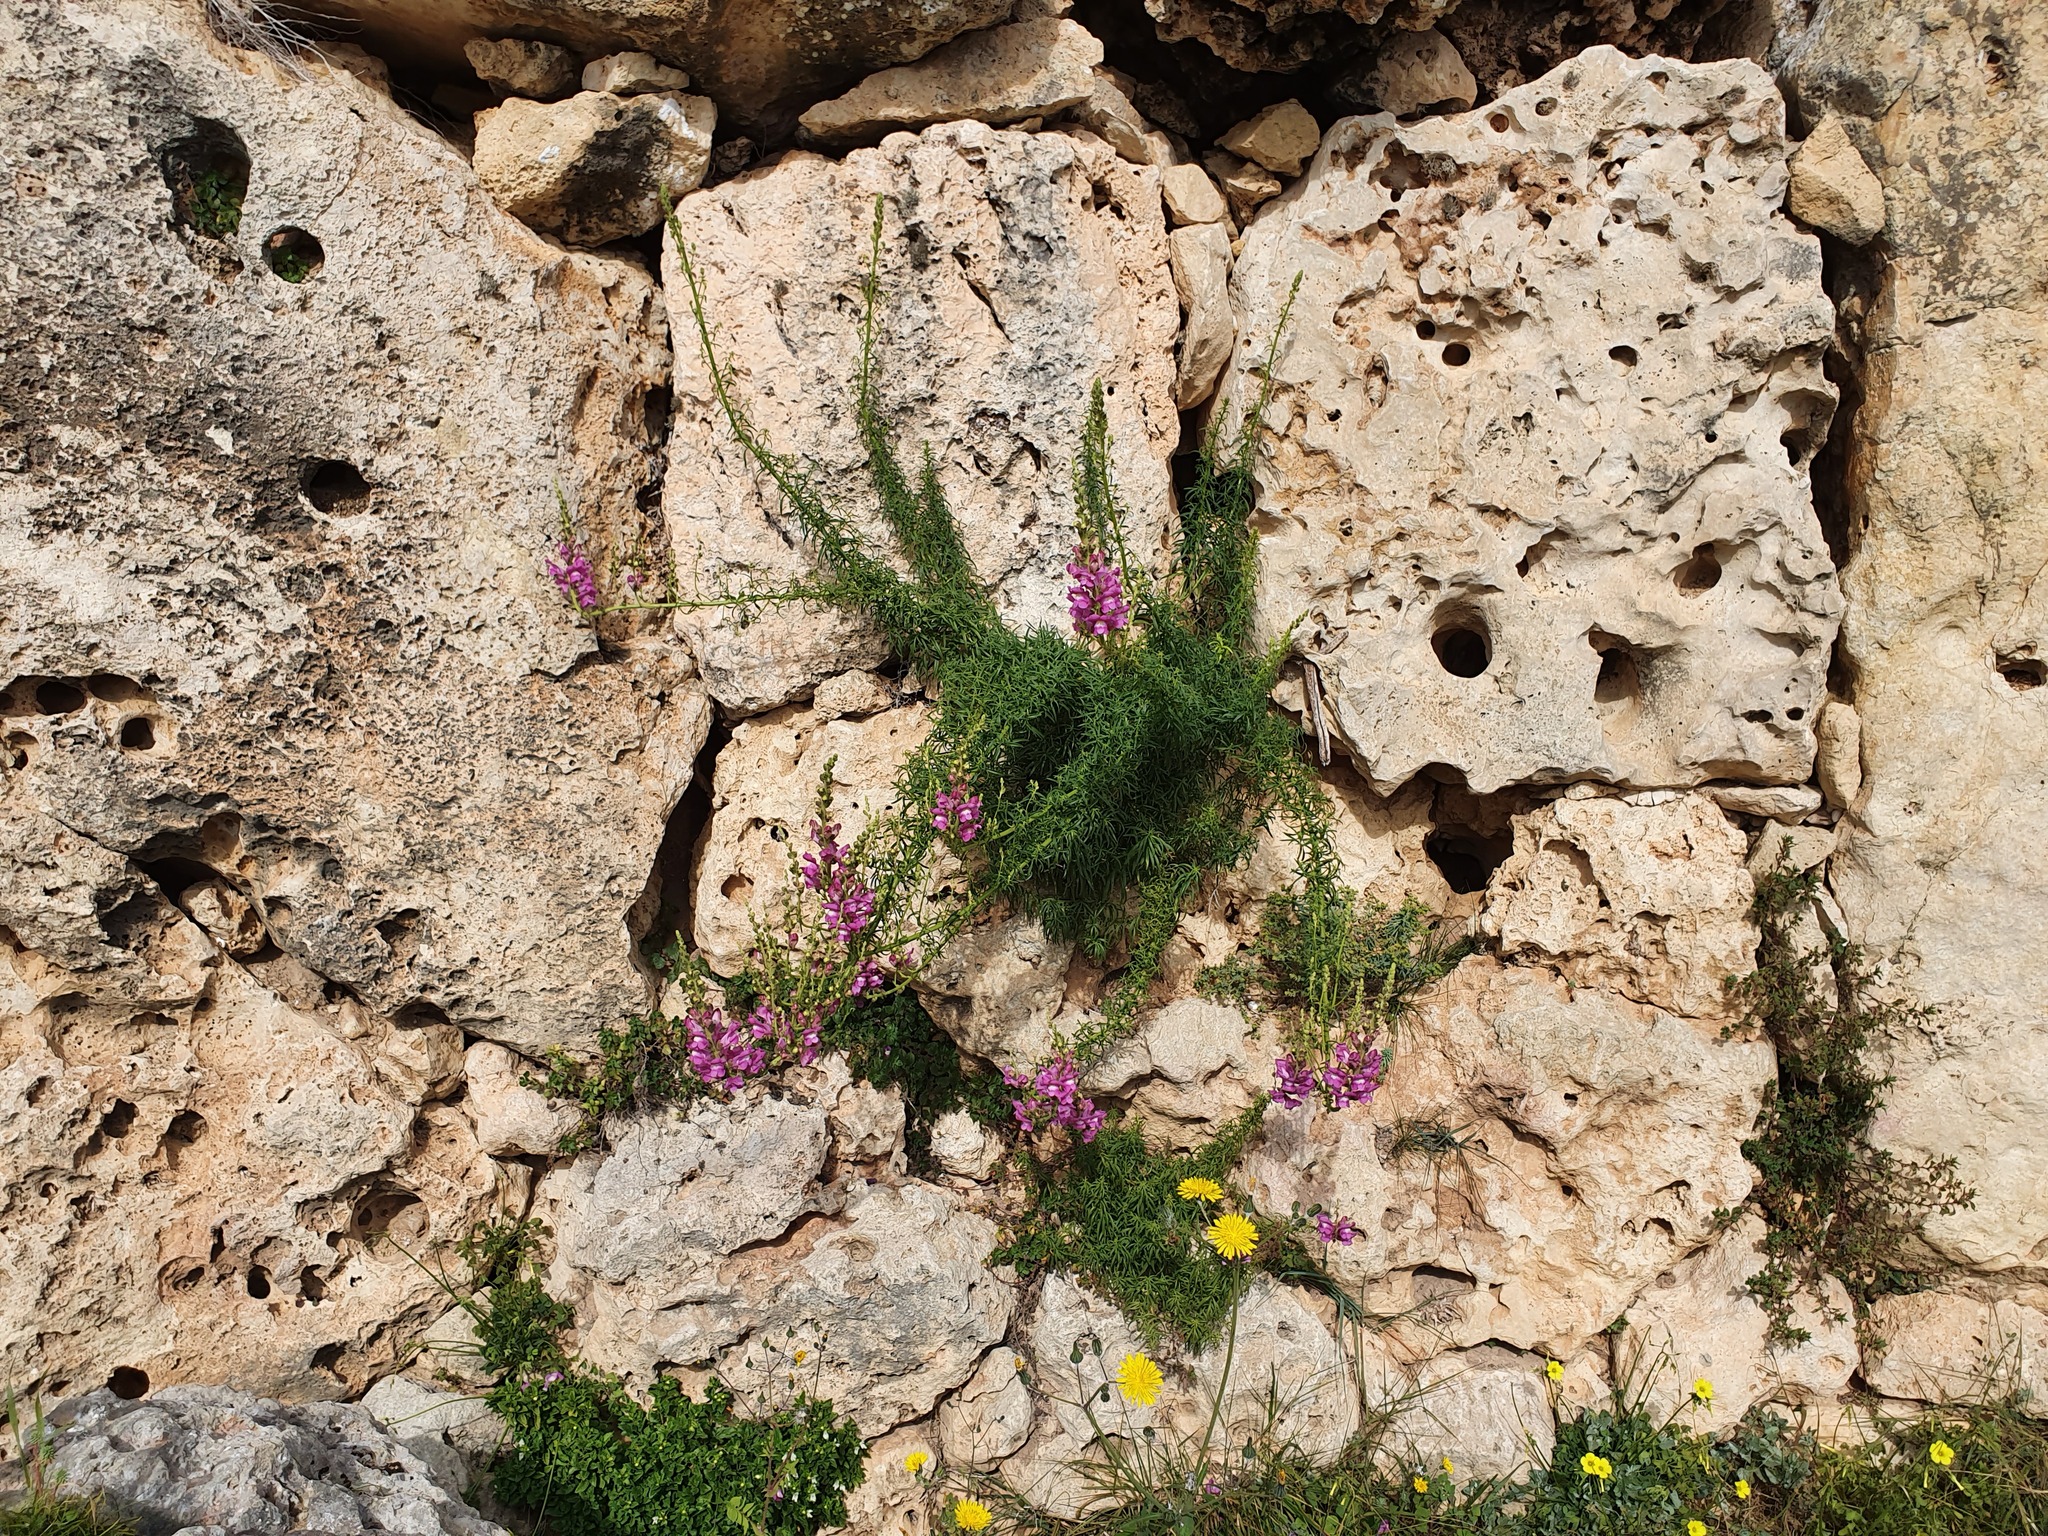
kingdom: Plantae
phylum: Tracheophyta
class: Magnoliopsida
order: Lamiales
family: Plantaginaceae
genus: Antirrhinum
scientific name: Antirrhinum tortuosum
